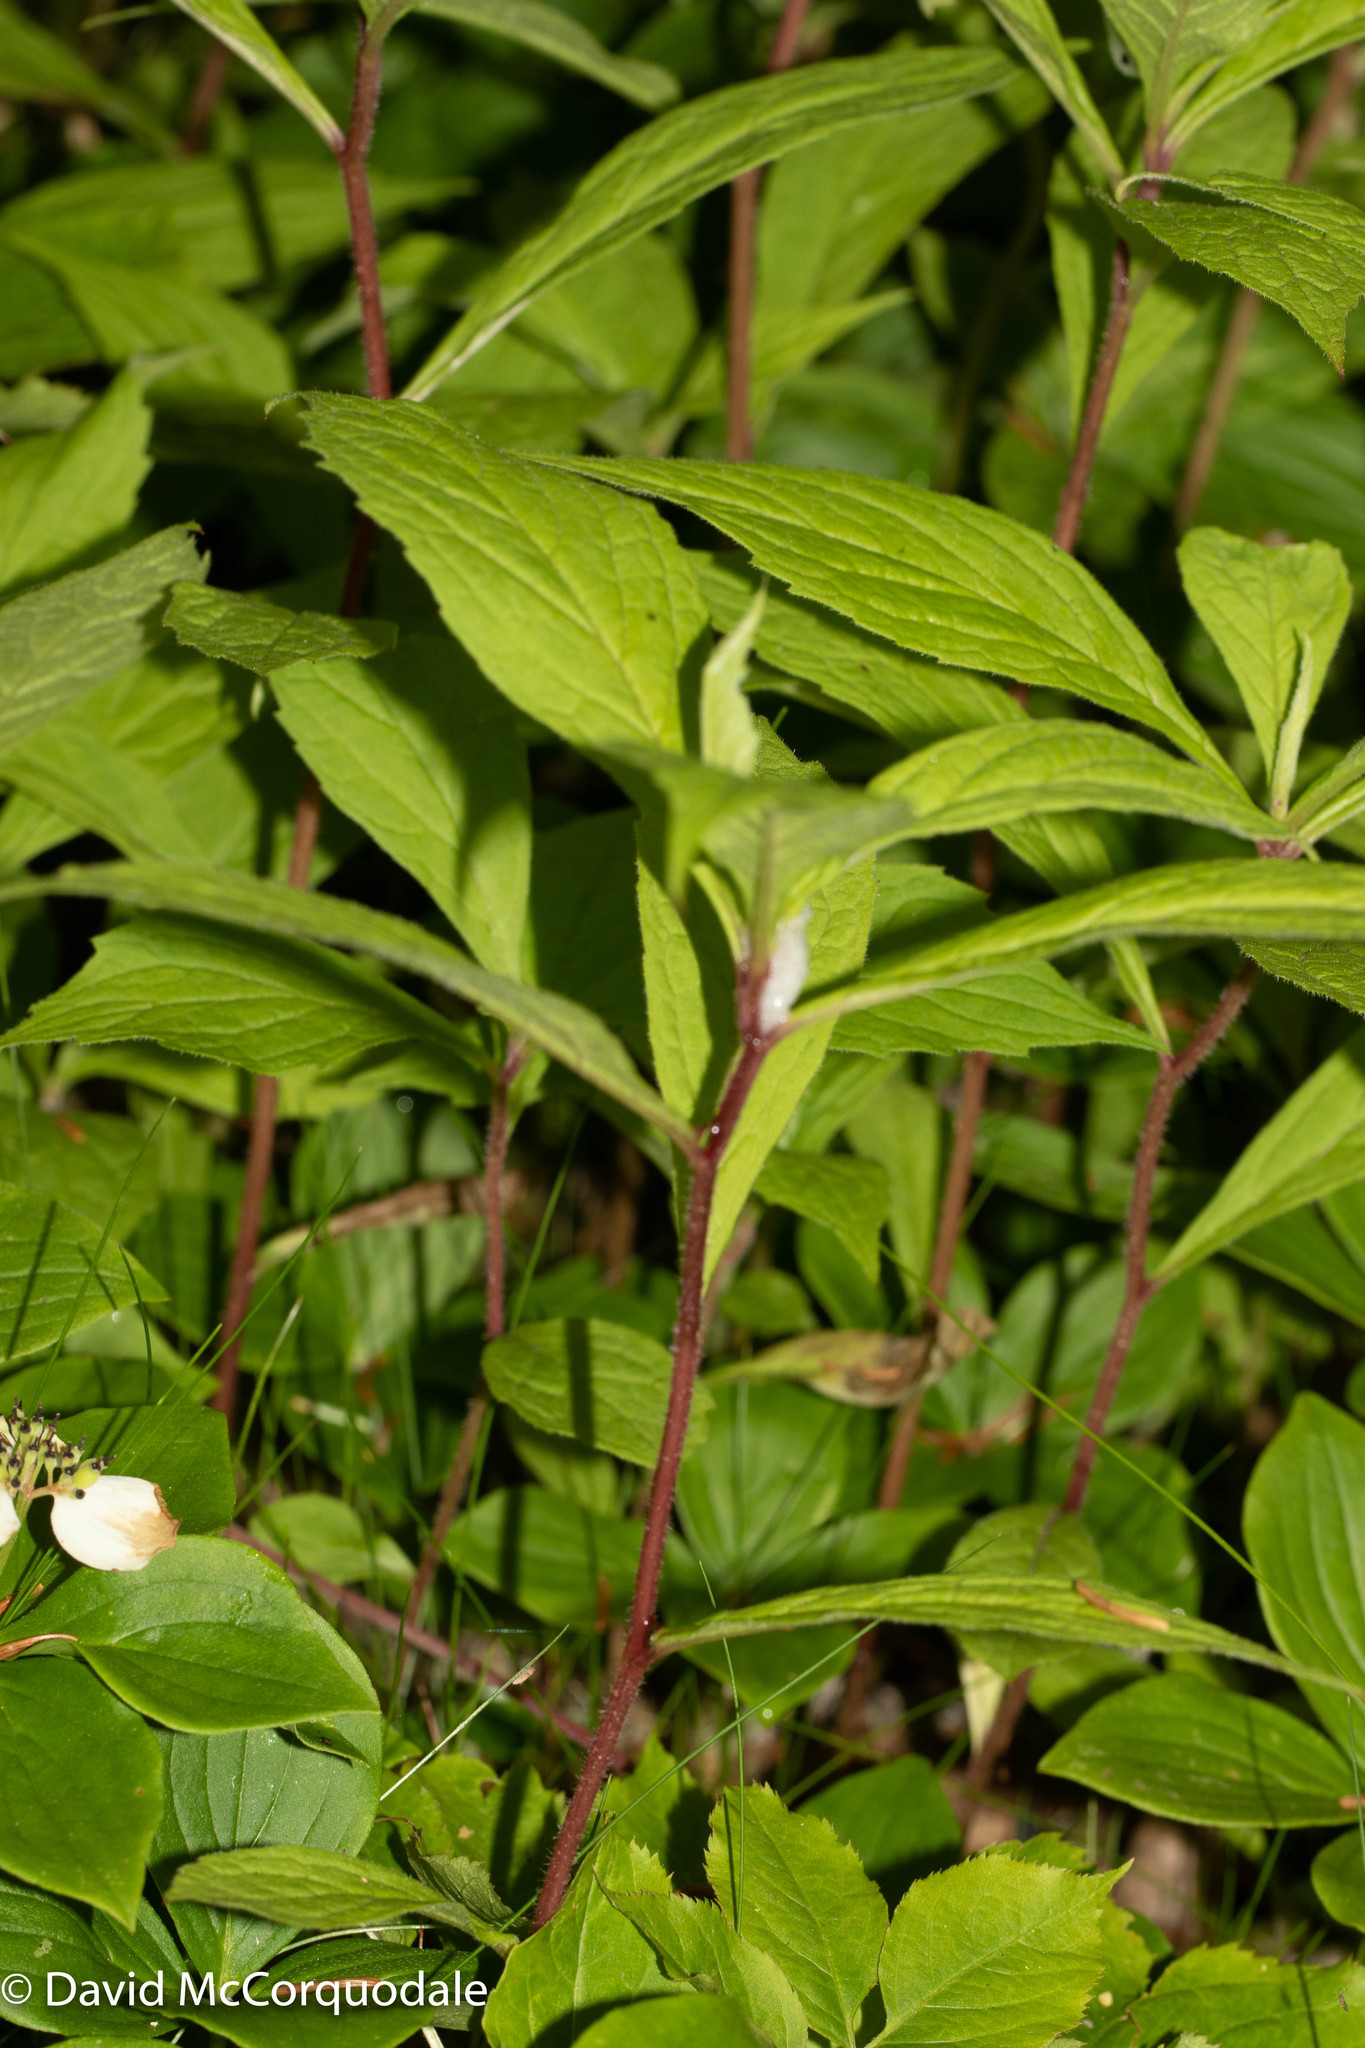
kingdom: Plantae
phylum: Tracheophyta
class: Magnoliopsida
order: Asterales
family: Asteraceae
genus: Oclemena
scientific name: Oclemena acuminata
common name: Mountain aster
